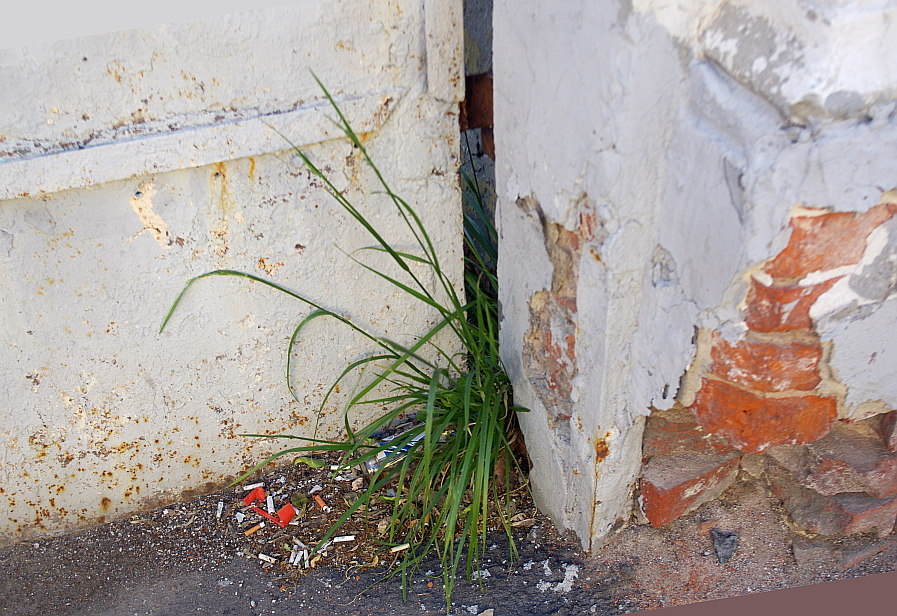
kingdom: Plantae
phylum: Tracheophyta
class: Liliopsida
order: Poales
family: Poaceae
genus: Lolium
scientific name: Lolium arundinaceum
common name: Reed fescue
